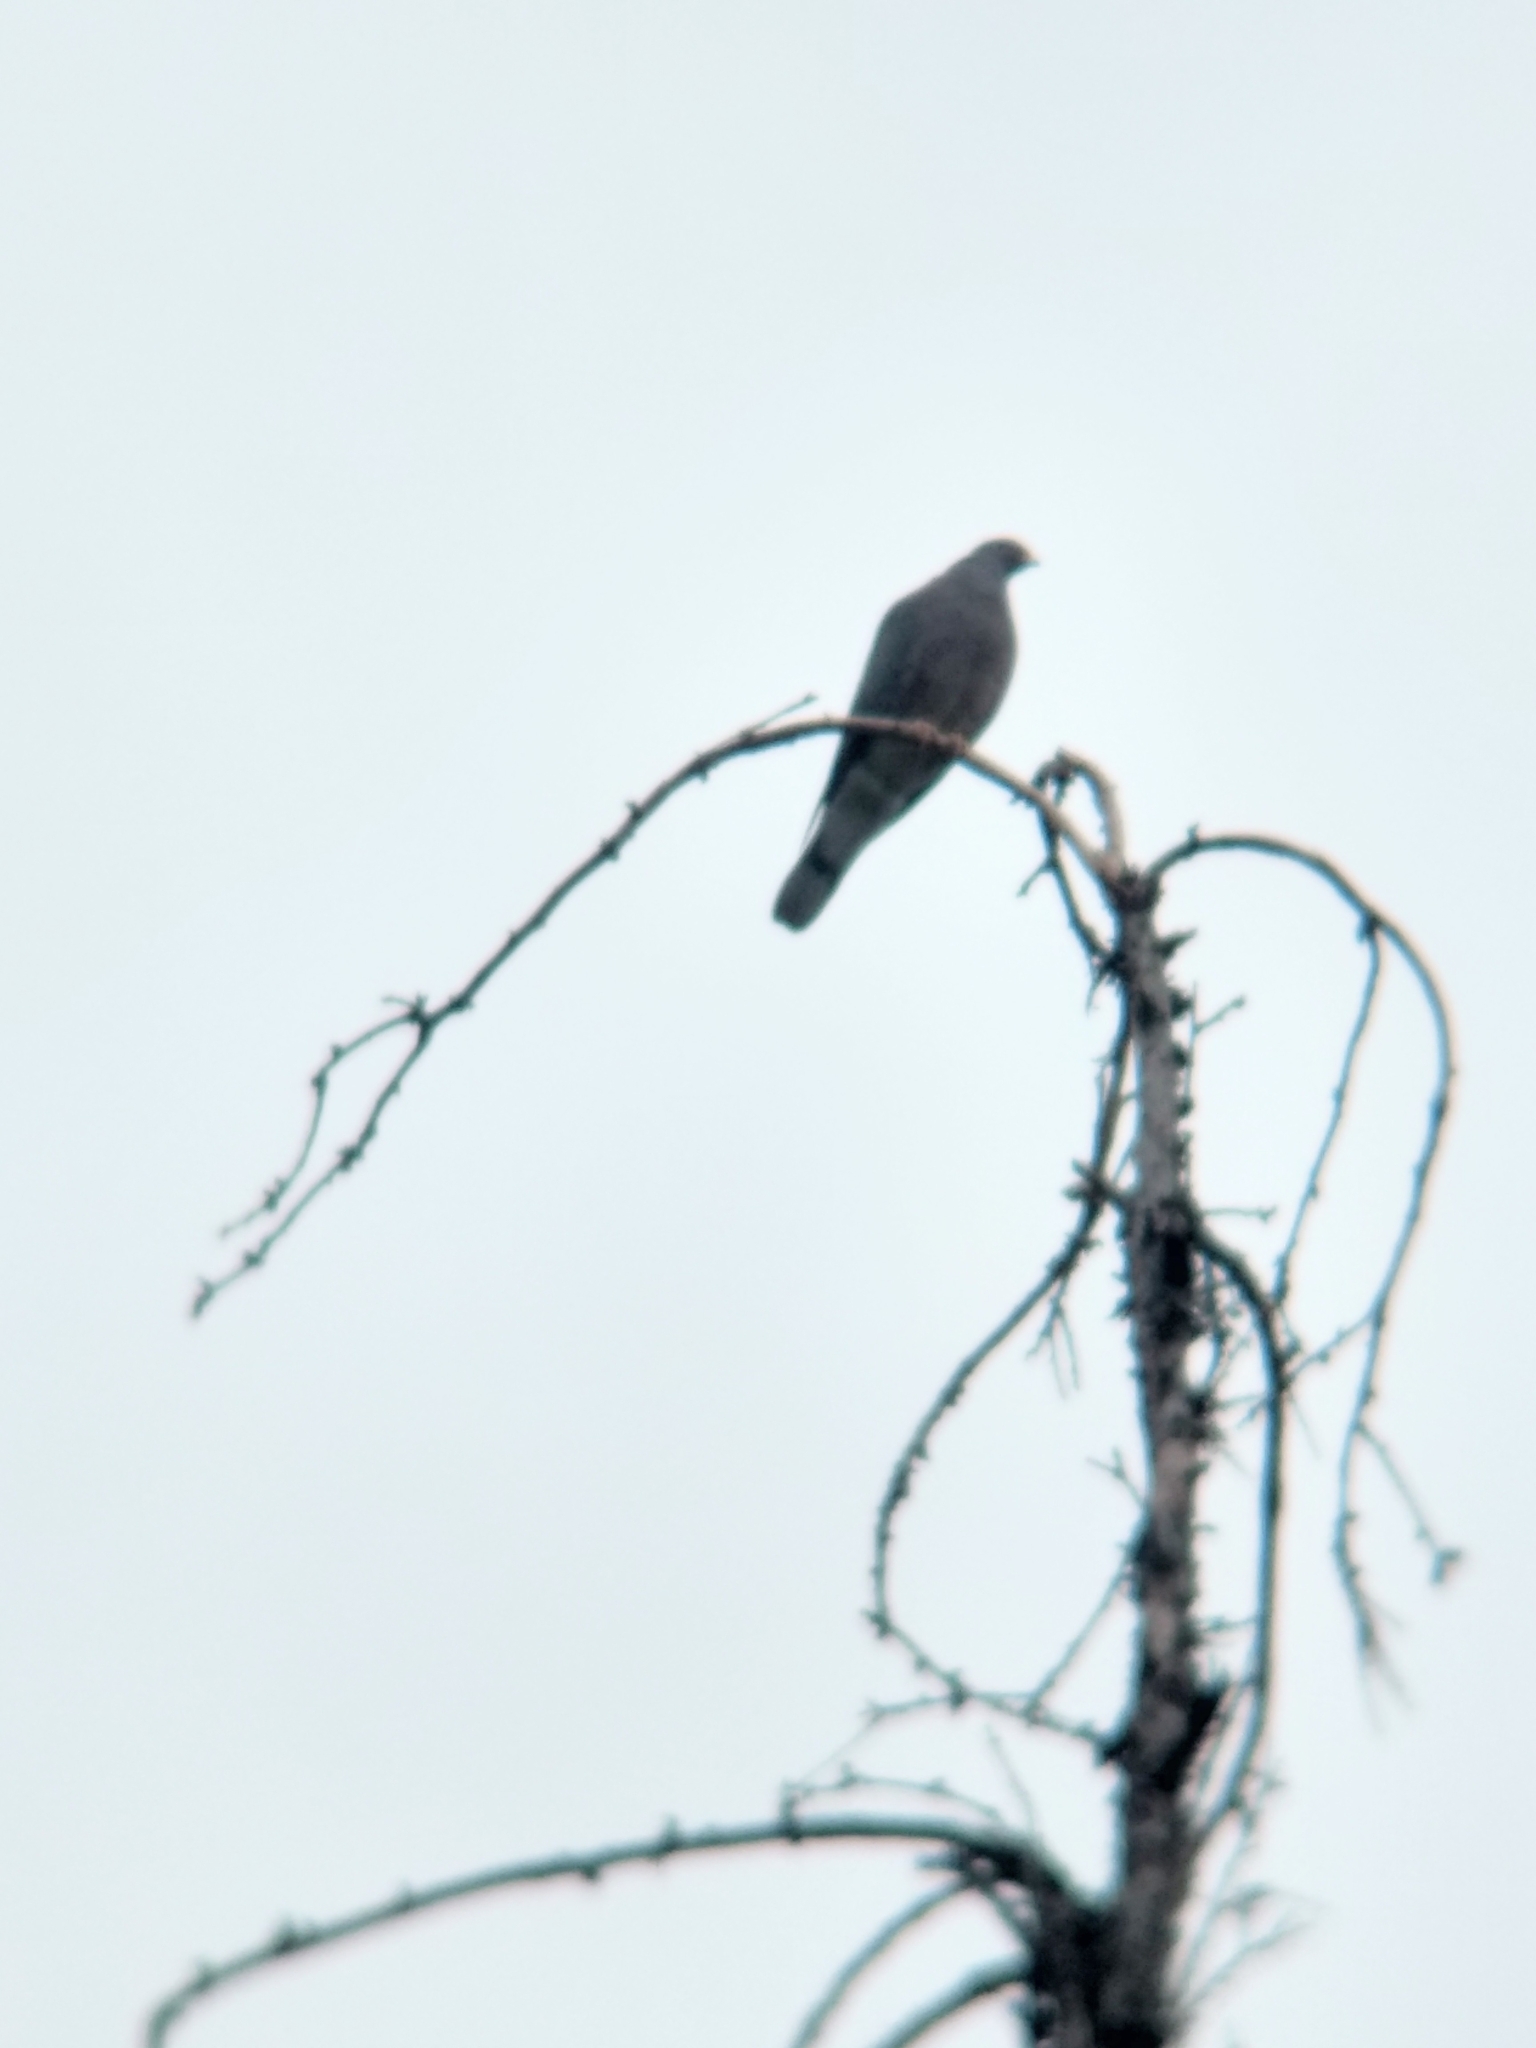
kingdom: Animalia
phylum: Chordata
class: Aves
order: Columbiformes
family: Columbidae
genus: Patagioenas
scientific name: Patagioenas fasciata
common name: Band-tailed pigeon
